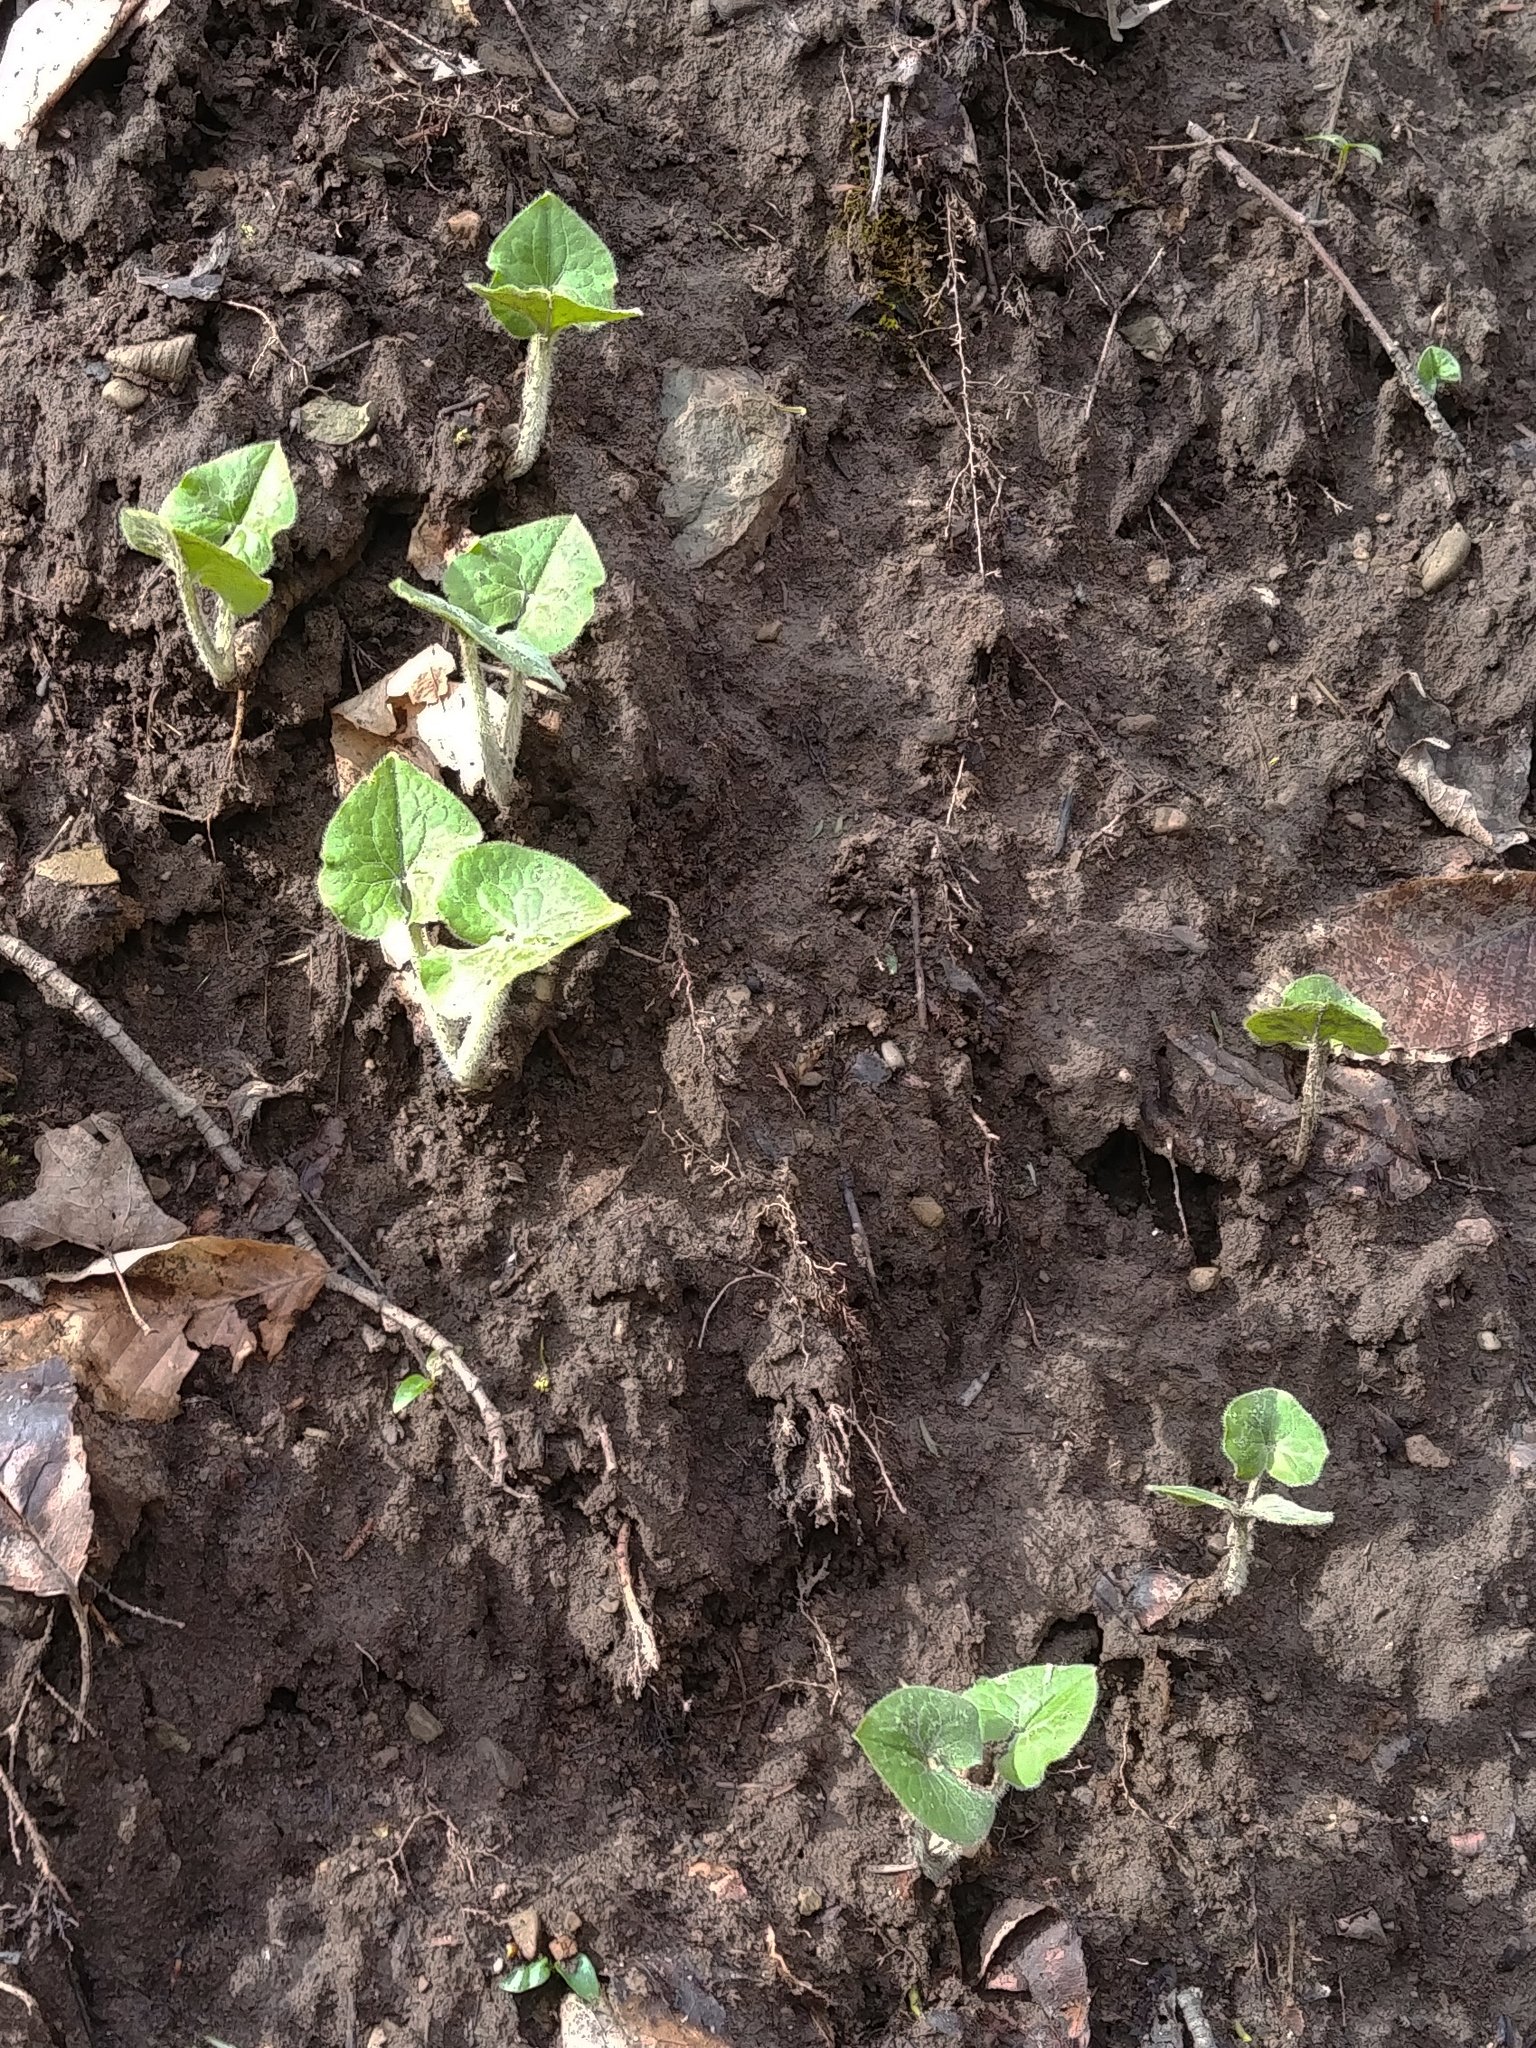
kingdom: Plantae
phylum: Tracheophyta
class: Magnoliopsida
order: Piperales
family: Aristolochiaceae
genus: Asarum
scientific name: Asarum canadense
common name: Wild ginger
